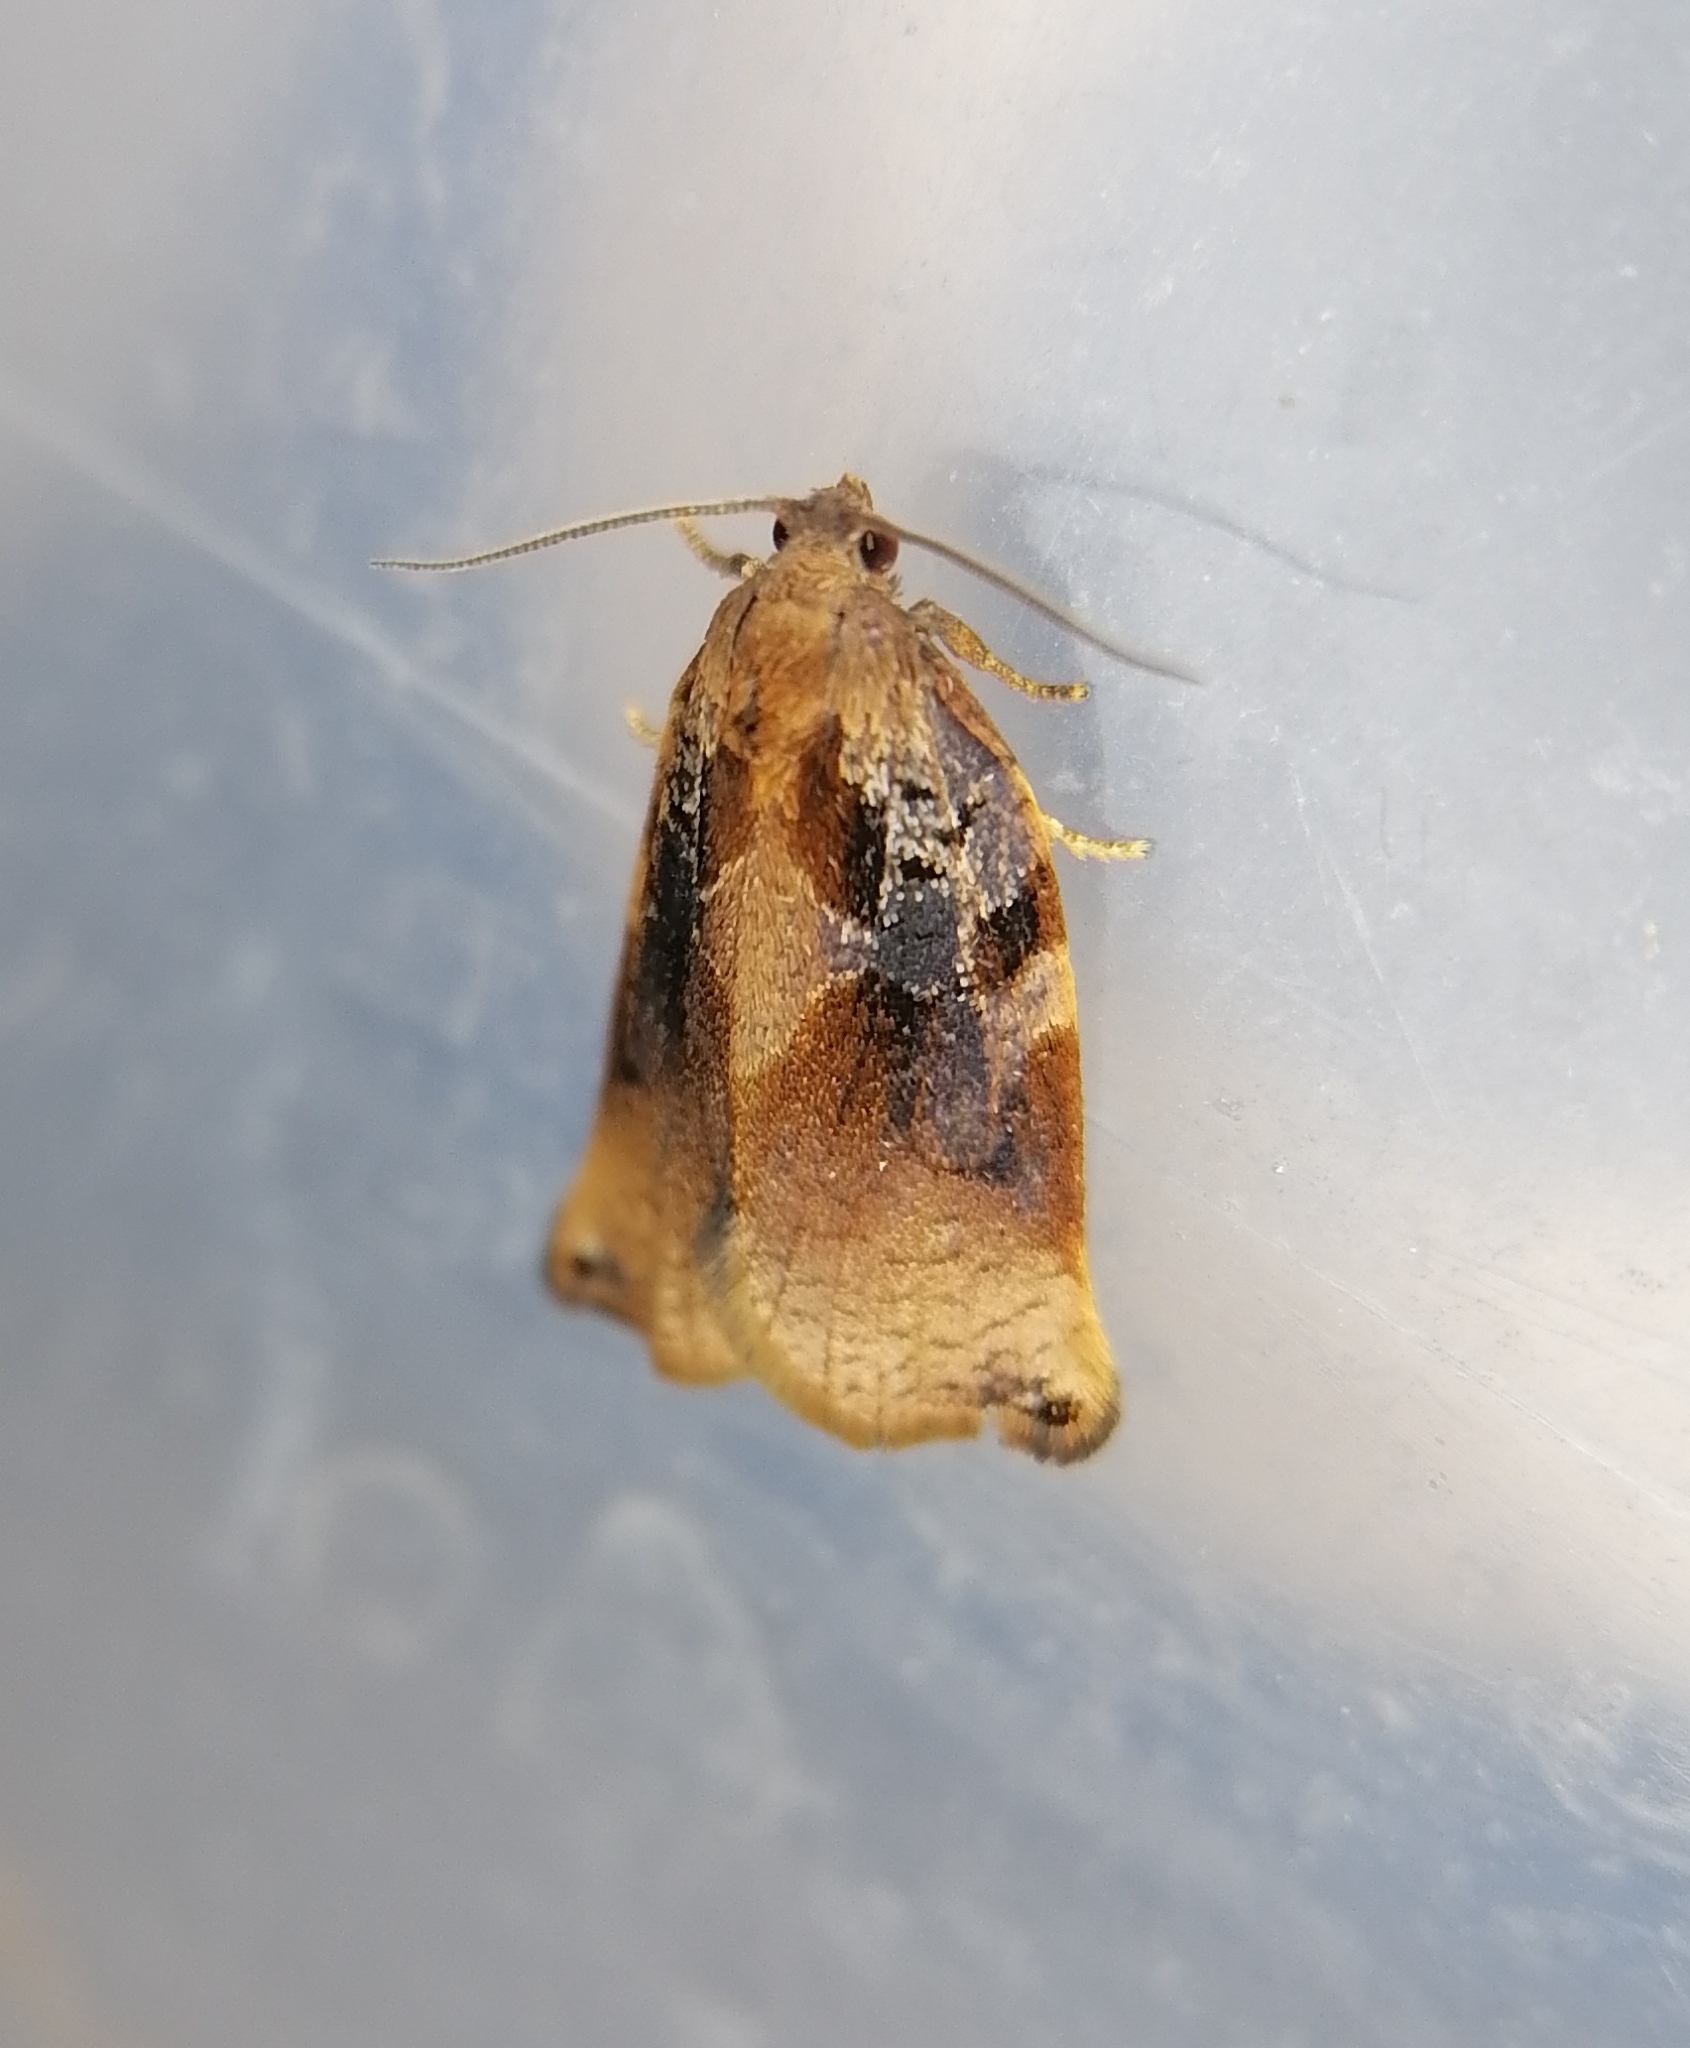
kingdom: Animalia
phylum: Arthropoda
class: Insecta
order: Lepidoptera
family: Tortricidae
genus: Archips
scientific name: Archips betulana
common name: Norfolk twist
